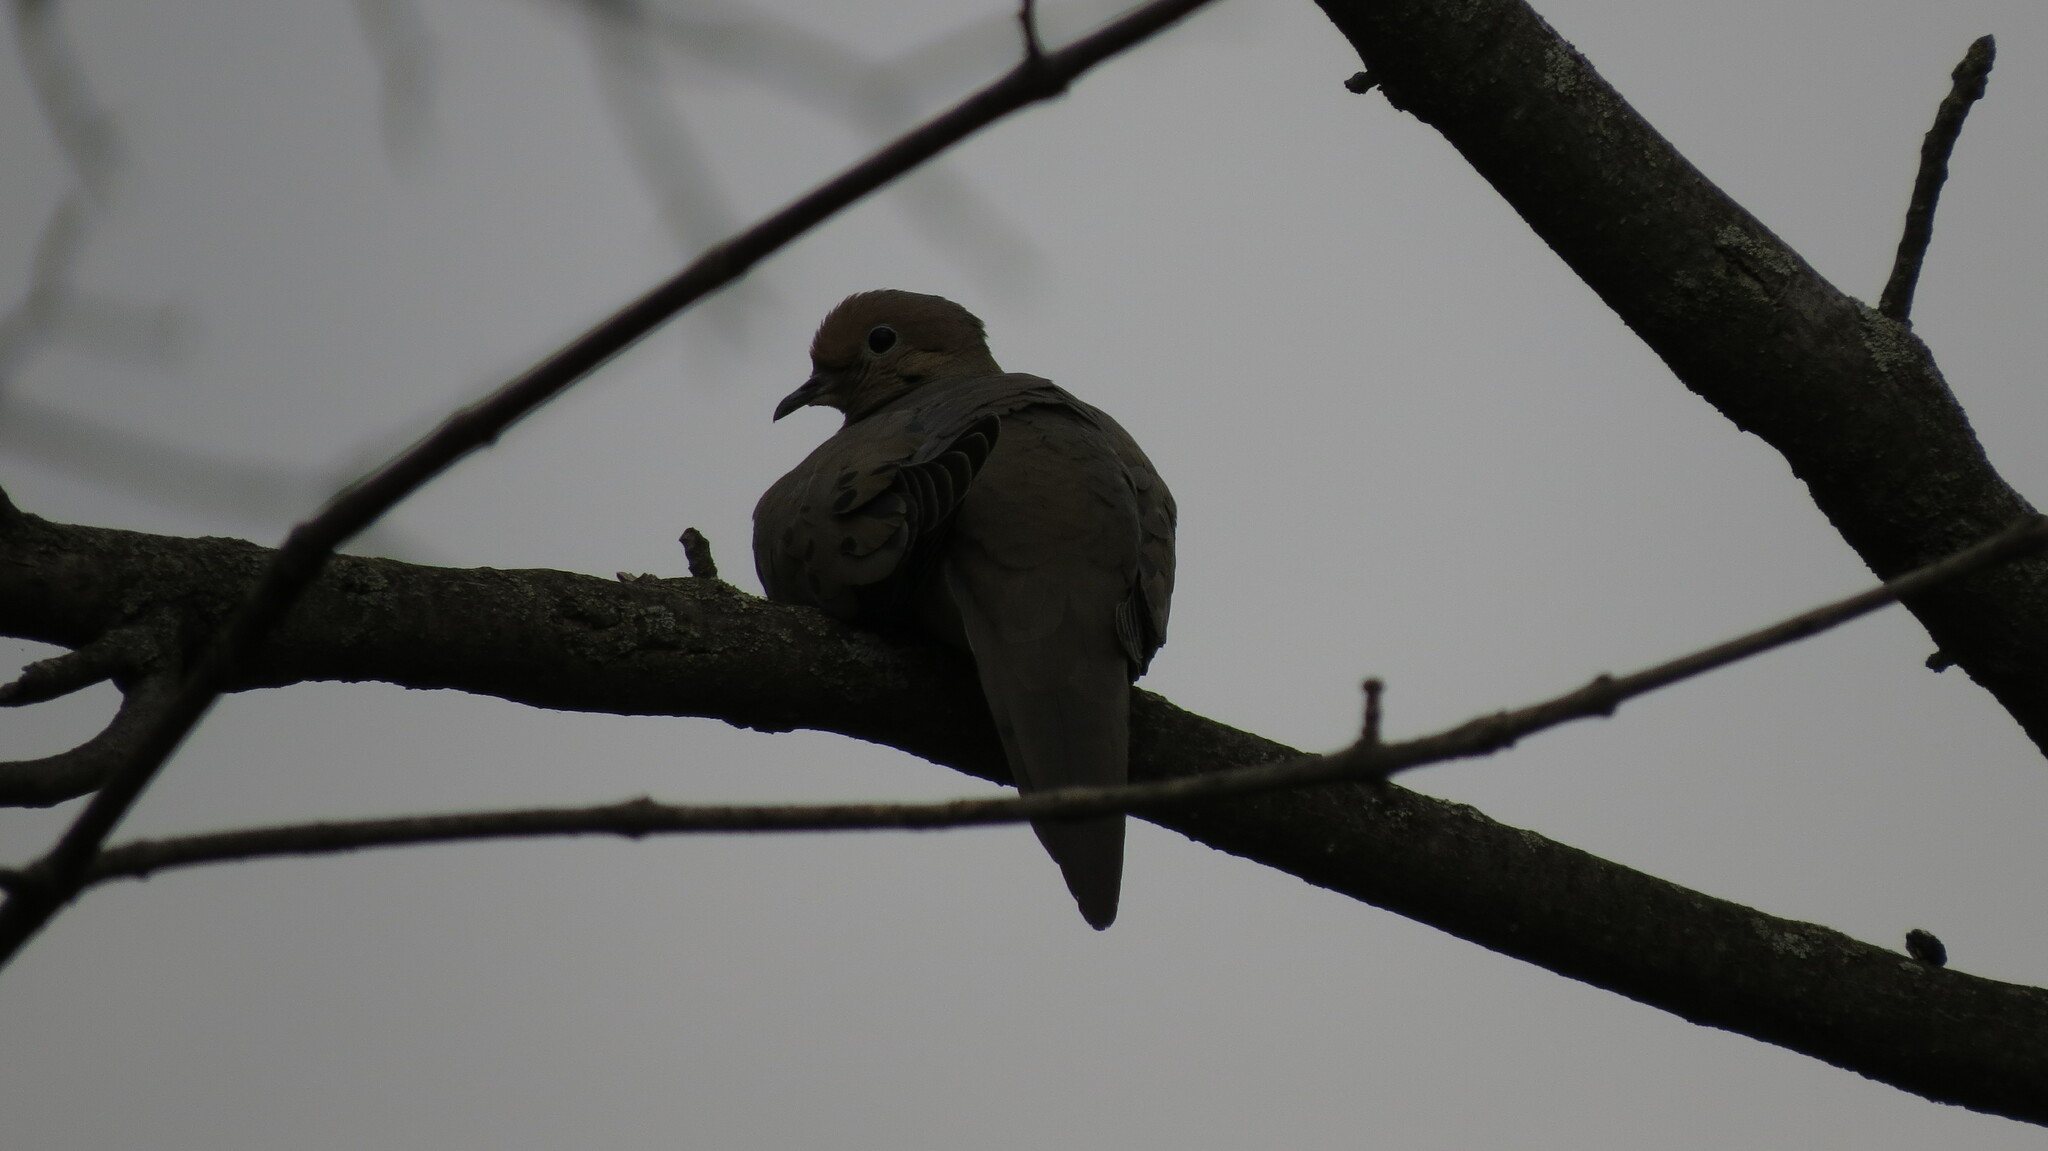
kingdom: Animalia
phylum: Chordata
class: Aves
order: Columbiformes
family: Columbidae
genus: Zenaida
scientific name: Zenaida macroura
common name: Mourning dove
